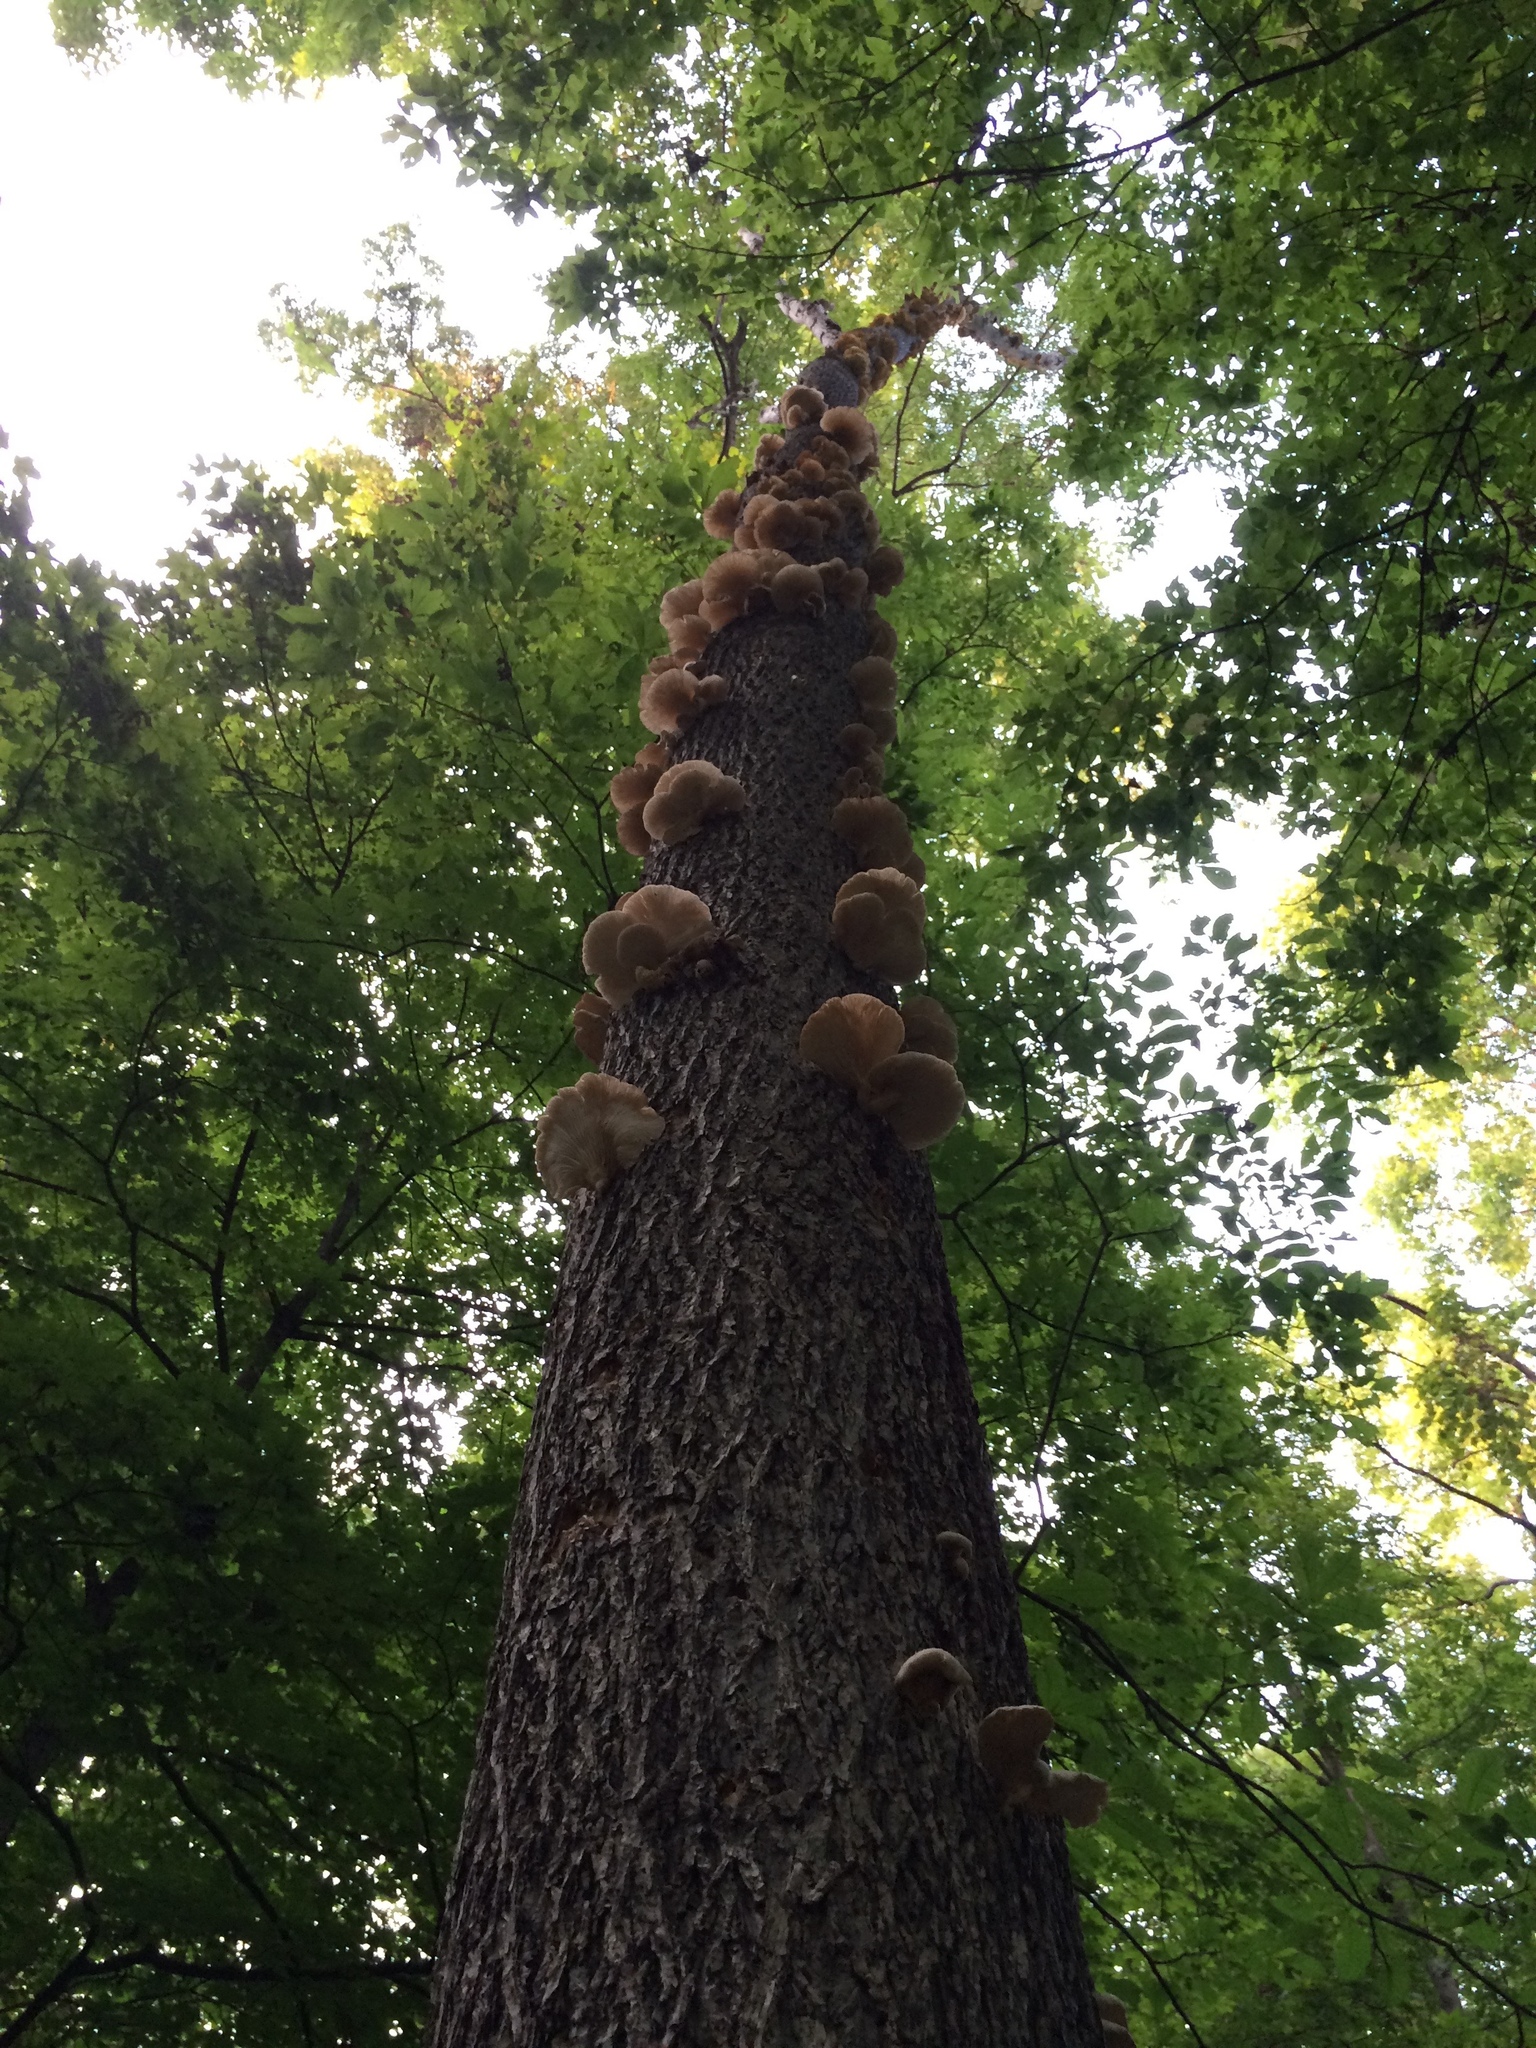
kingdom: Fungi
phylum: Basidiomycota
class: Agaricomycetes
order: Agaricales
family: Pleurotaceae
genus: Pleurotus
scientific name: Pleurotus ostreatus
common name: Oyster mushroom
